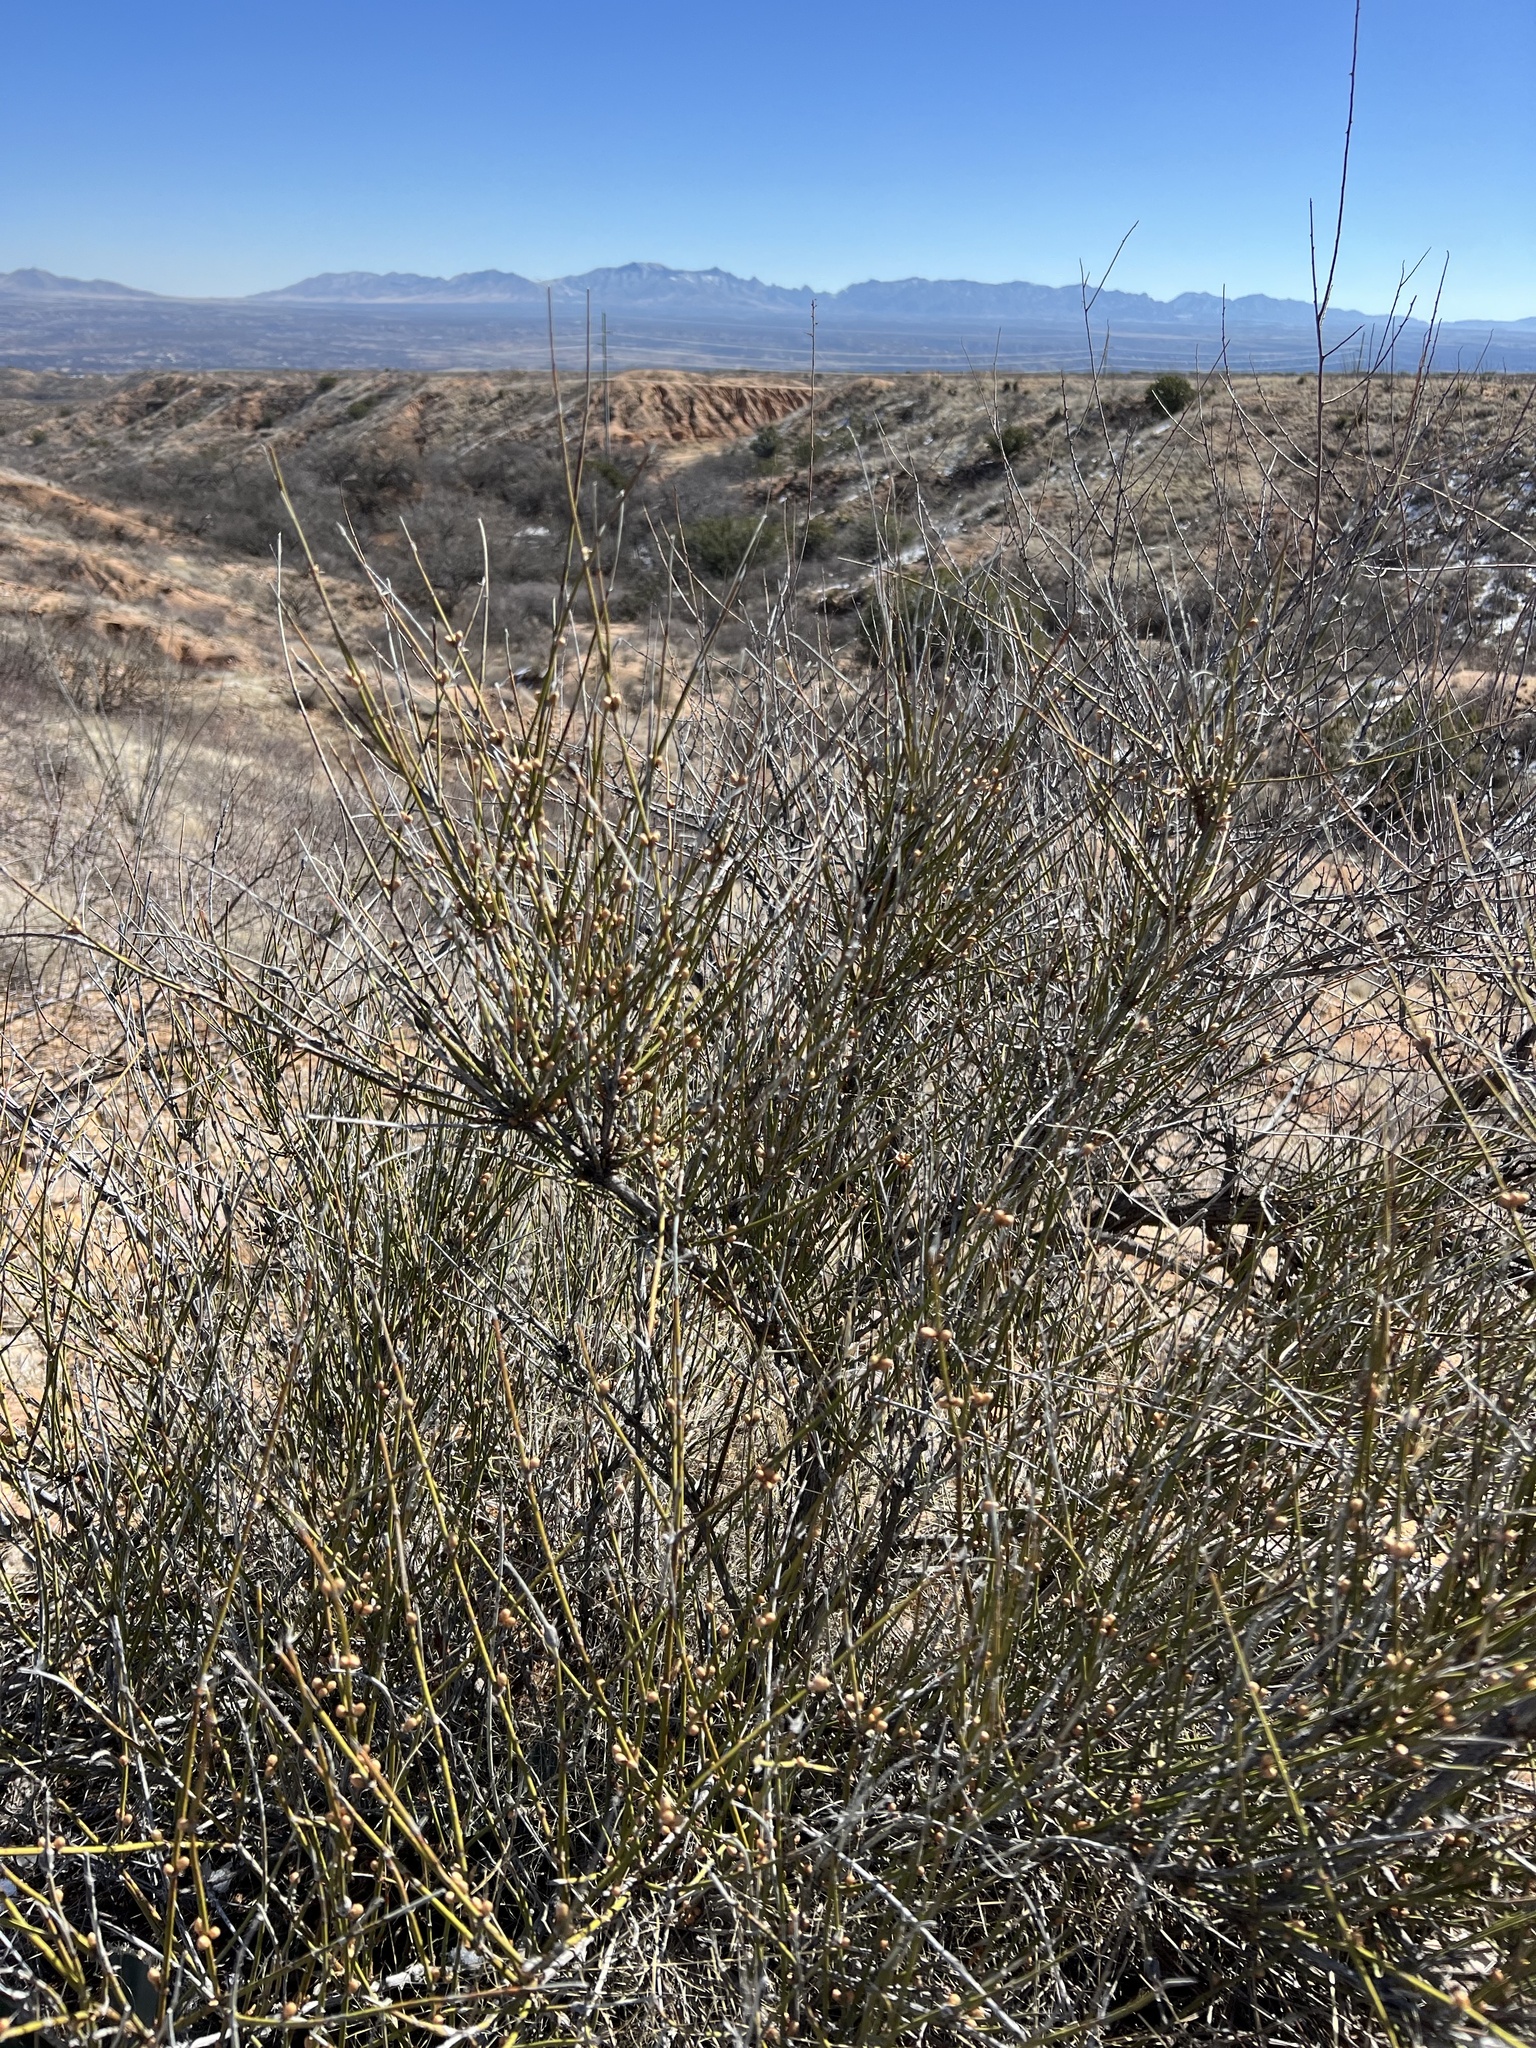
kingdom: Plantae
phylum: Tracheophyta
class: Gnetopsida
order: Ephedrales
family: Ephedraceae
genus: Ephedra
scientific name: Ephedra trifurca
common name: Mexican-tea
